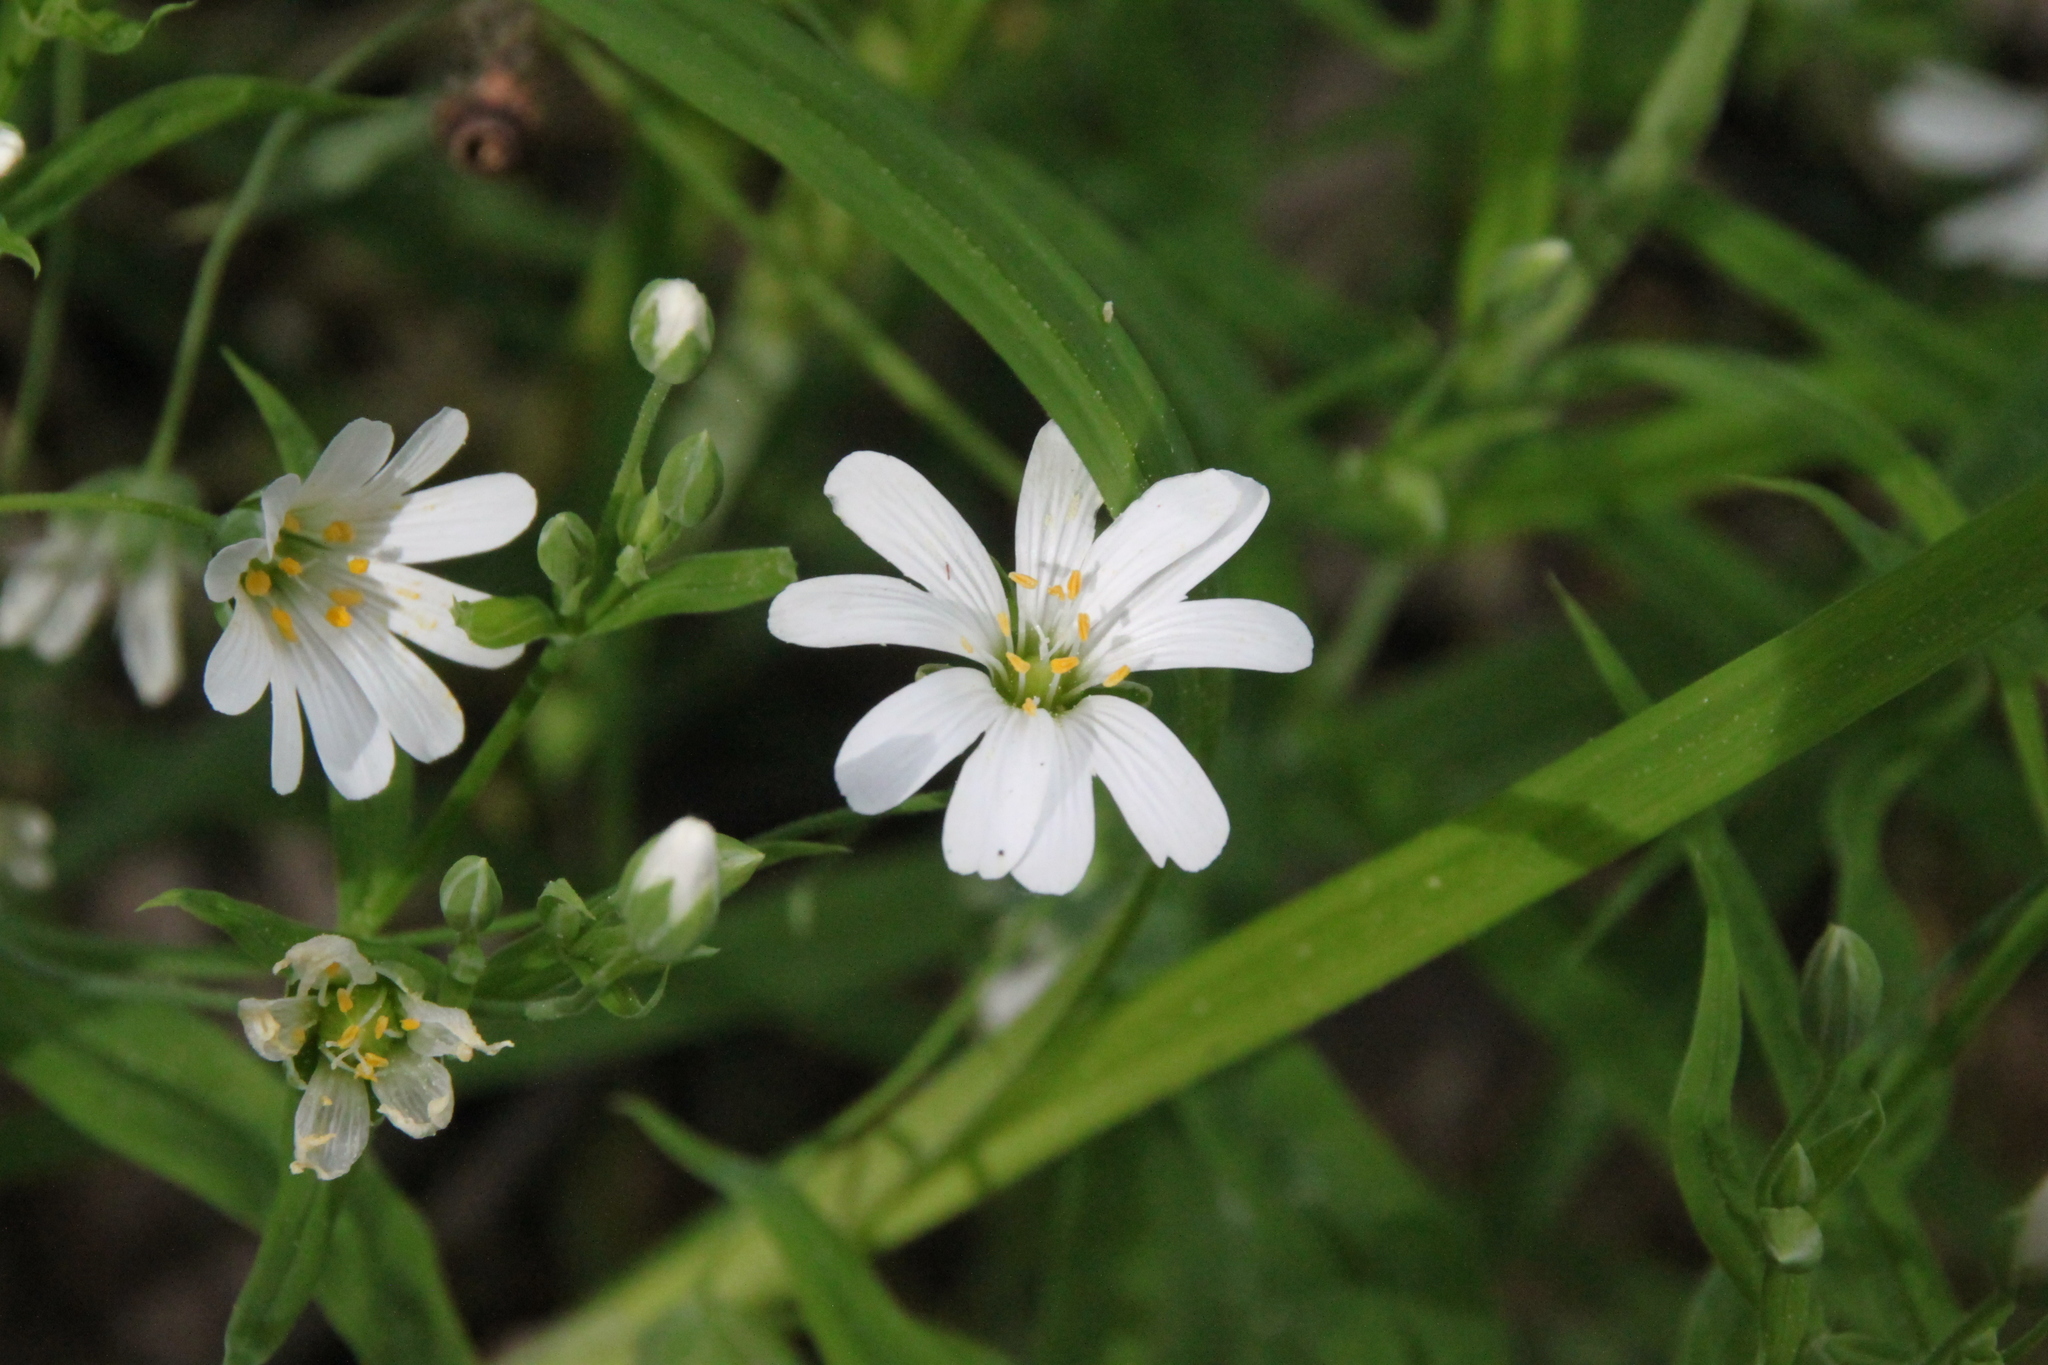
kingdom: Plantae
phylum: Tracheophyta
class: Magnoliopsida
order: Caryophyllales
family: Caryophyllaceae
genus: Rabelera
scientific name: Rabelera holostea
